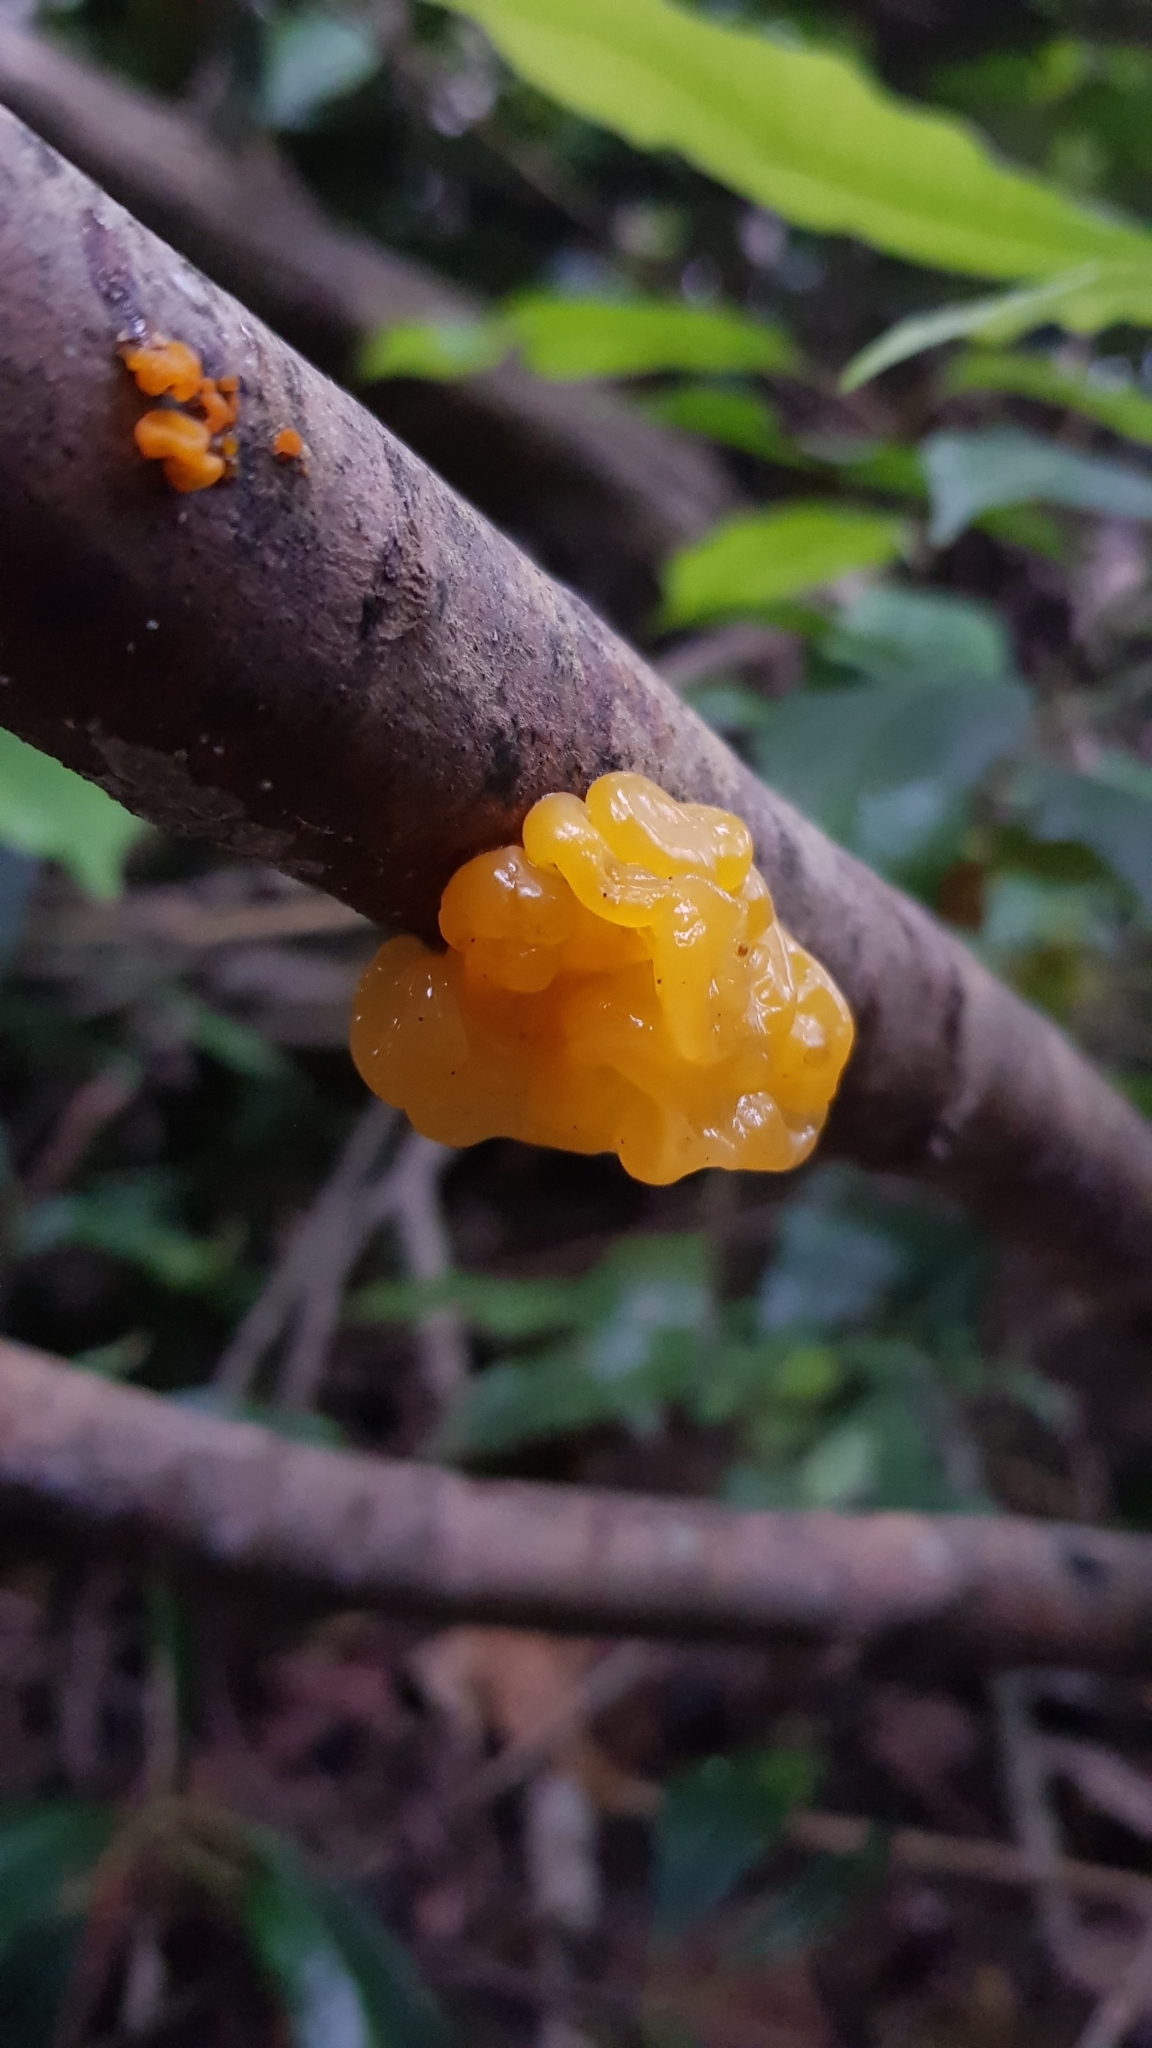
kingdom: Fungi
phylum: Basidiomycota
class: Tremellomycetes
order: Tremellales
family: Tremellaceae
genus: Tremella
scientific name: Tremella mesenterica
